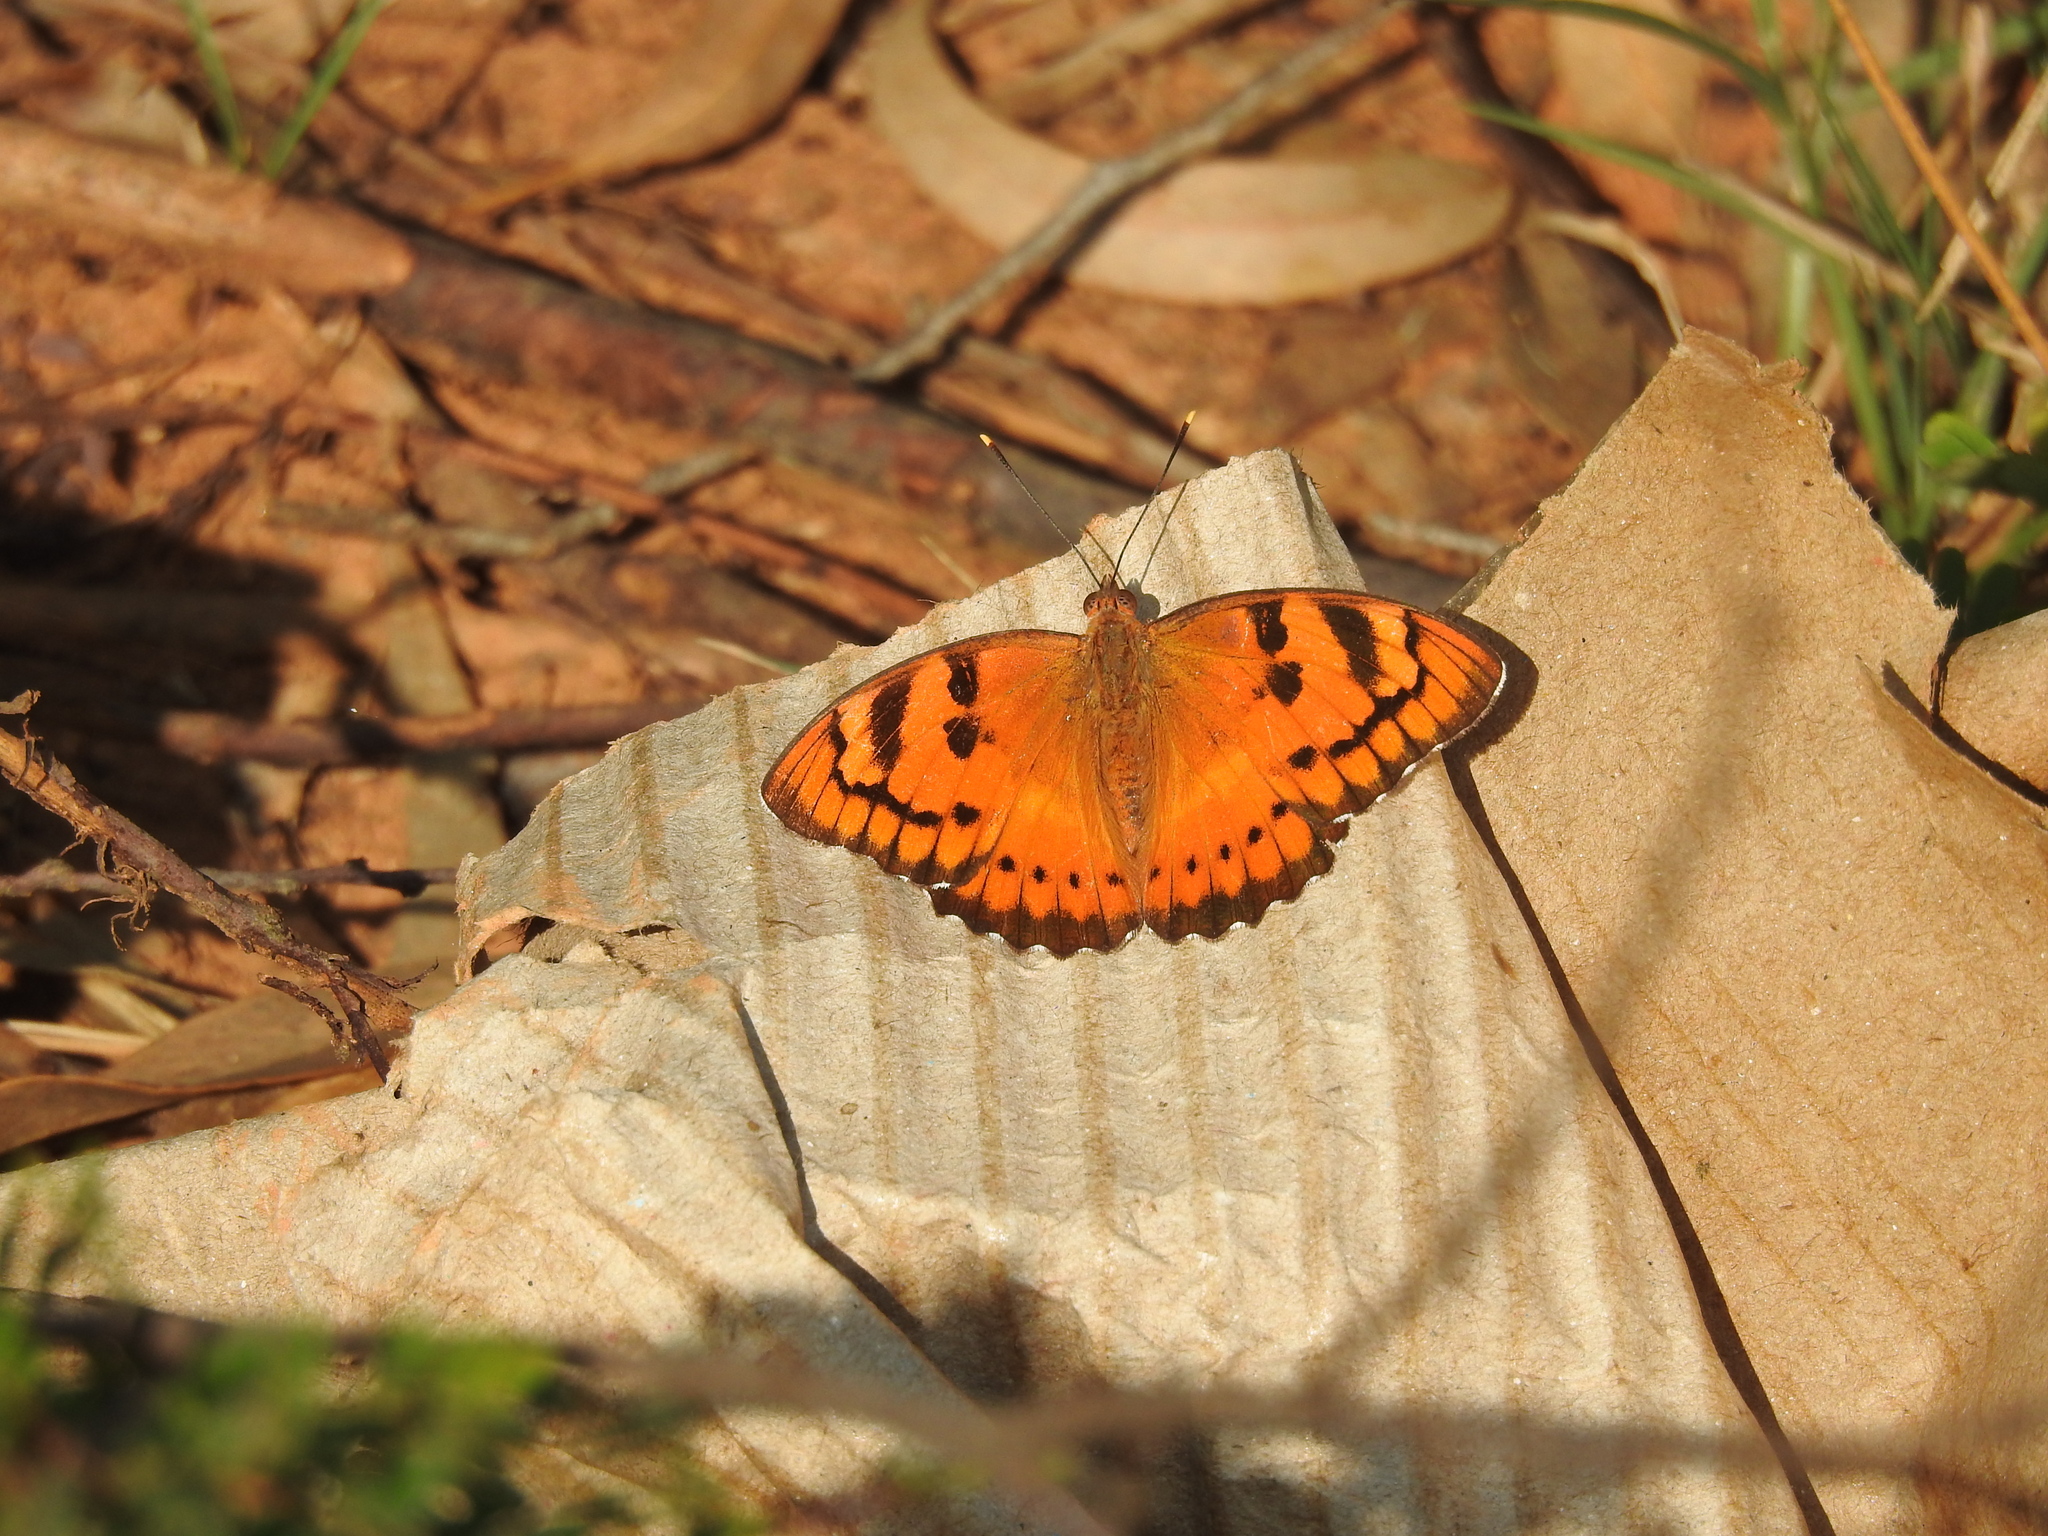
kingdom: Animalia
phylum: Arthropoda
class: Insecta
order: Lepidoptera
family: Nymphalidae
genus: Euthalia
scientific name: Euthalia nais
